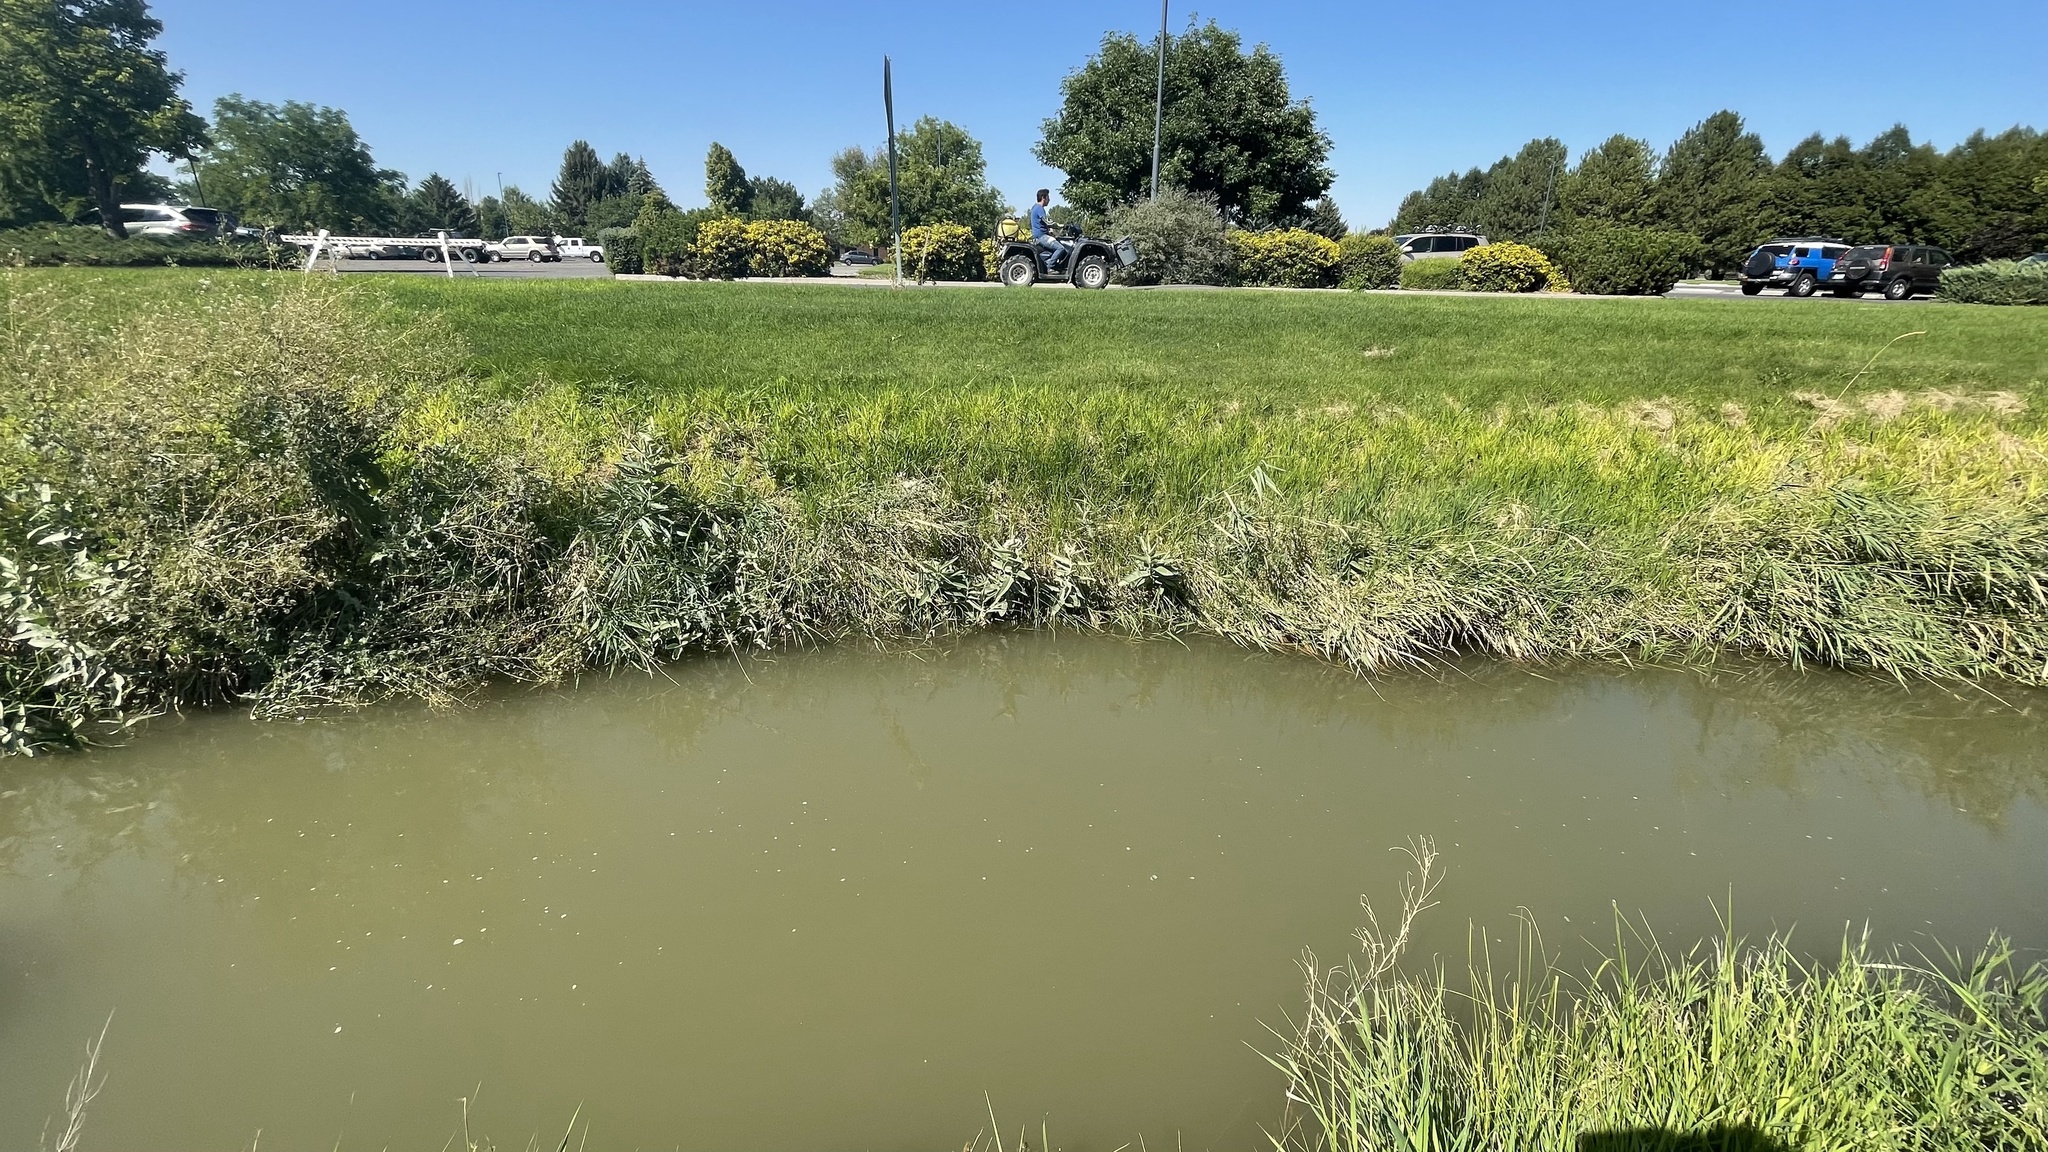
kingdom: Plantae
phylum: Tracheophyta
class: Magnoliopsida
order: Gentianales
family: Apocynaceae
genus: Asclepias
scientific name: Asclepias speciosa
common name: Showy milkweed
